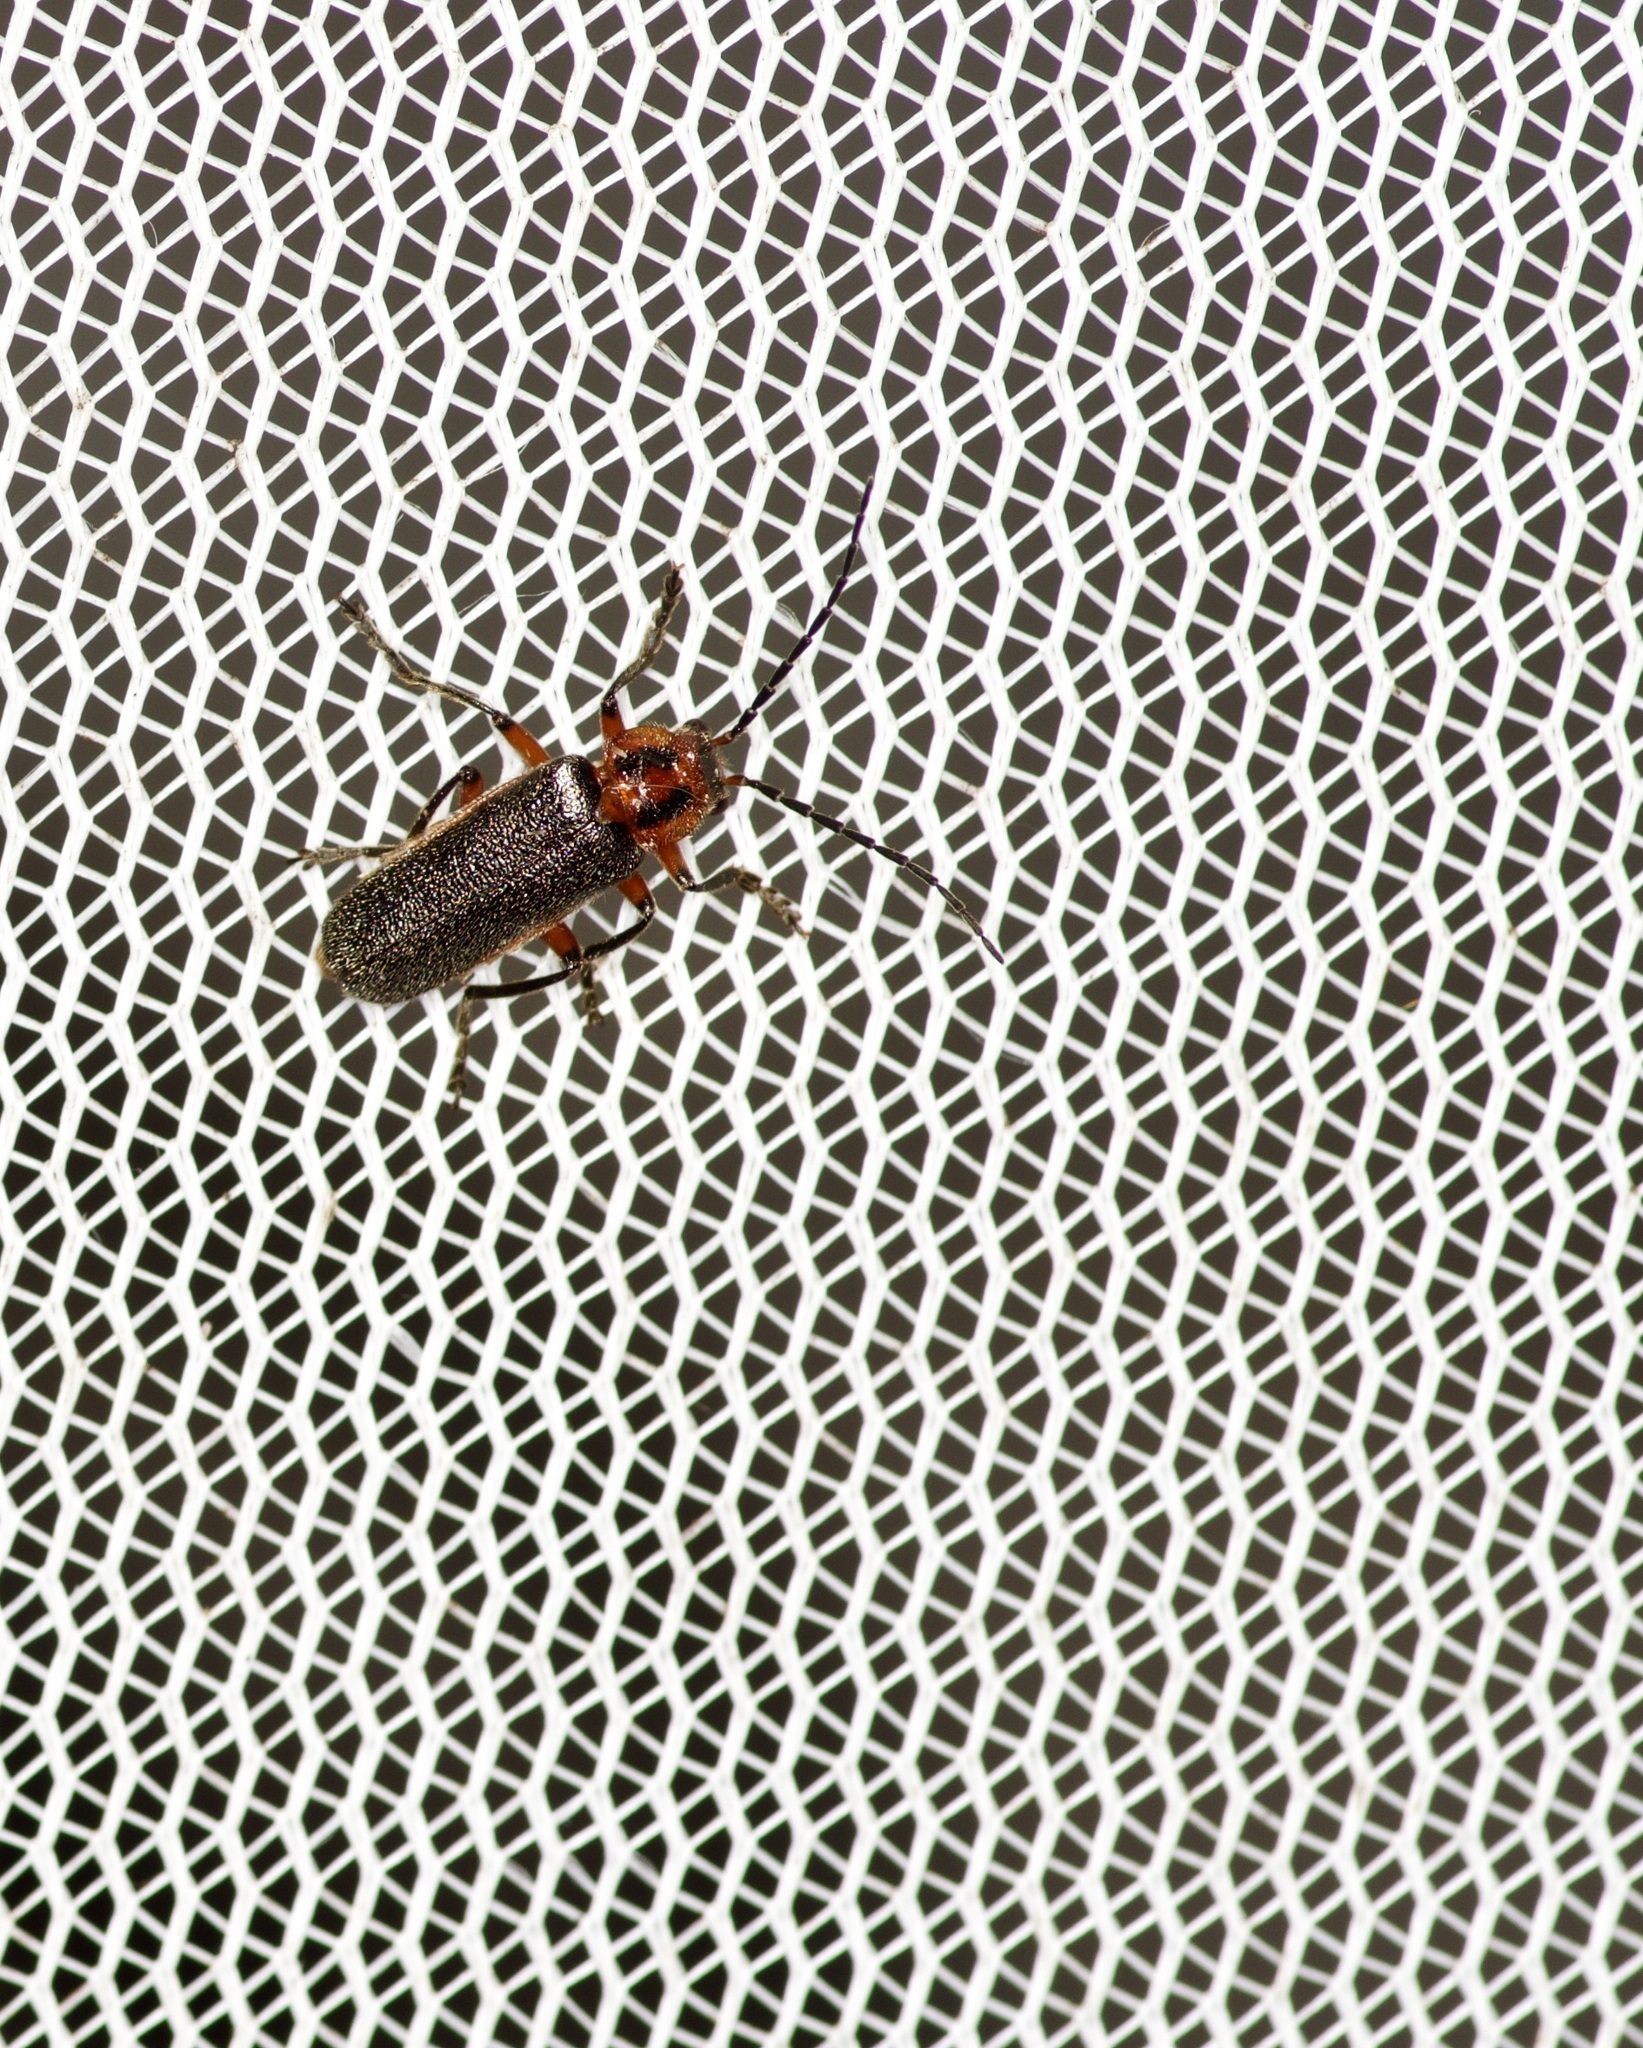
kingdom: Animalia
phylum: Arthropoda
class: Insecta
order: Coleoptera
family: Cantharidae
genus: Atalantycha
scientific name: Atalantycha bilineata
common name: Two-lined leatherwing
